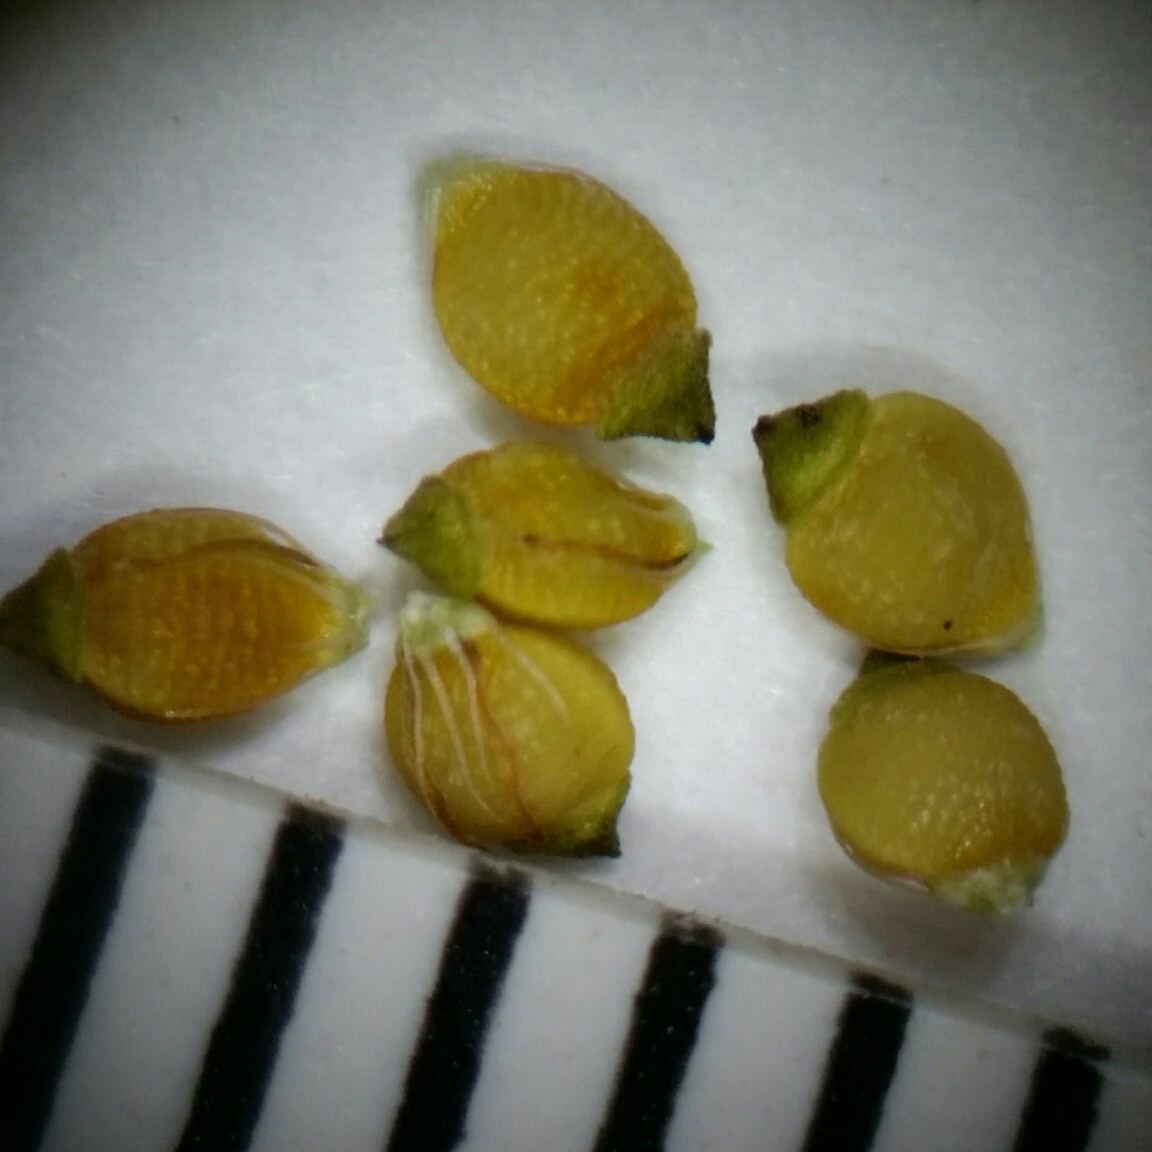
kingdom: Plantae
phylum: Tracheophyta
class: Liliopsida
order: Poales
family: Cyperaceae
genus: Rhynchospora
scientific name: Rhynchospora globularis
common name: Globe beaksedge
